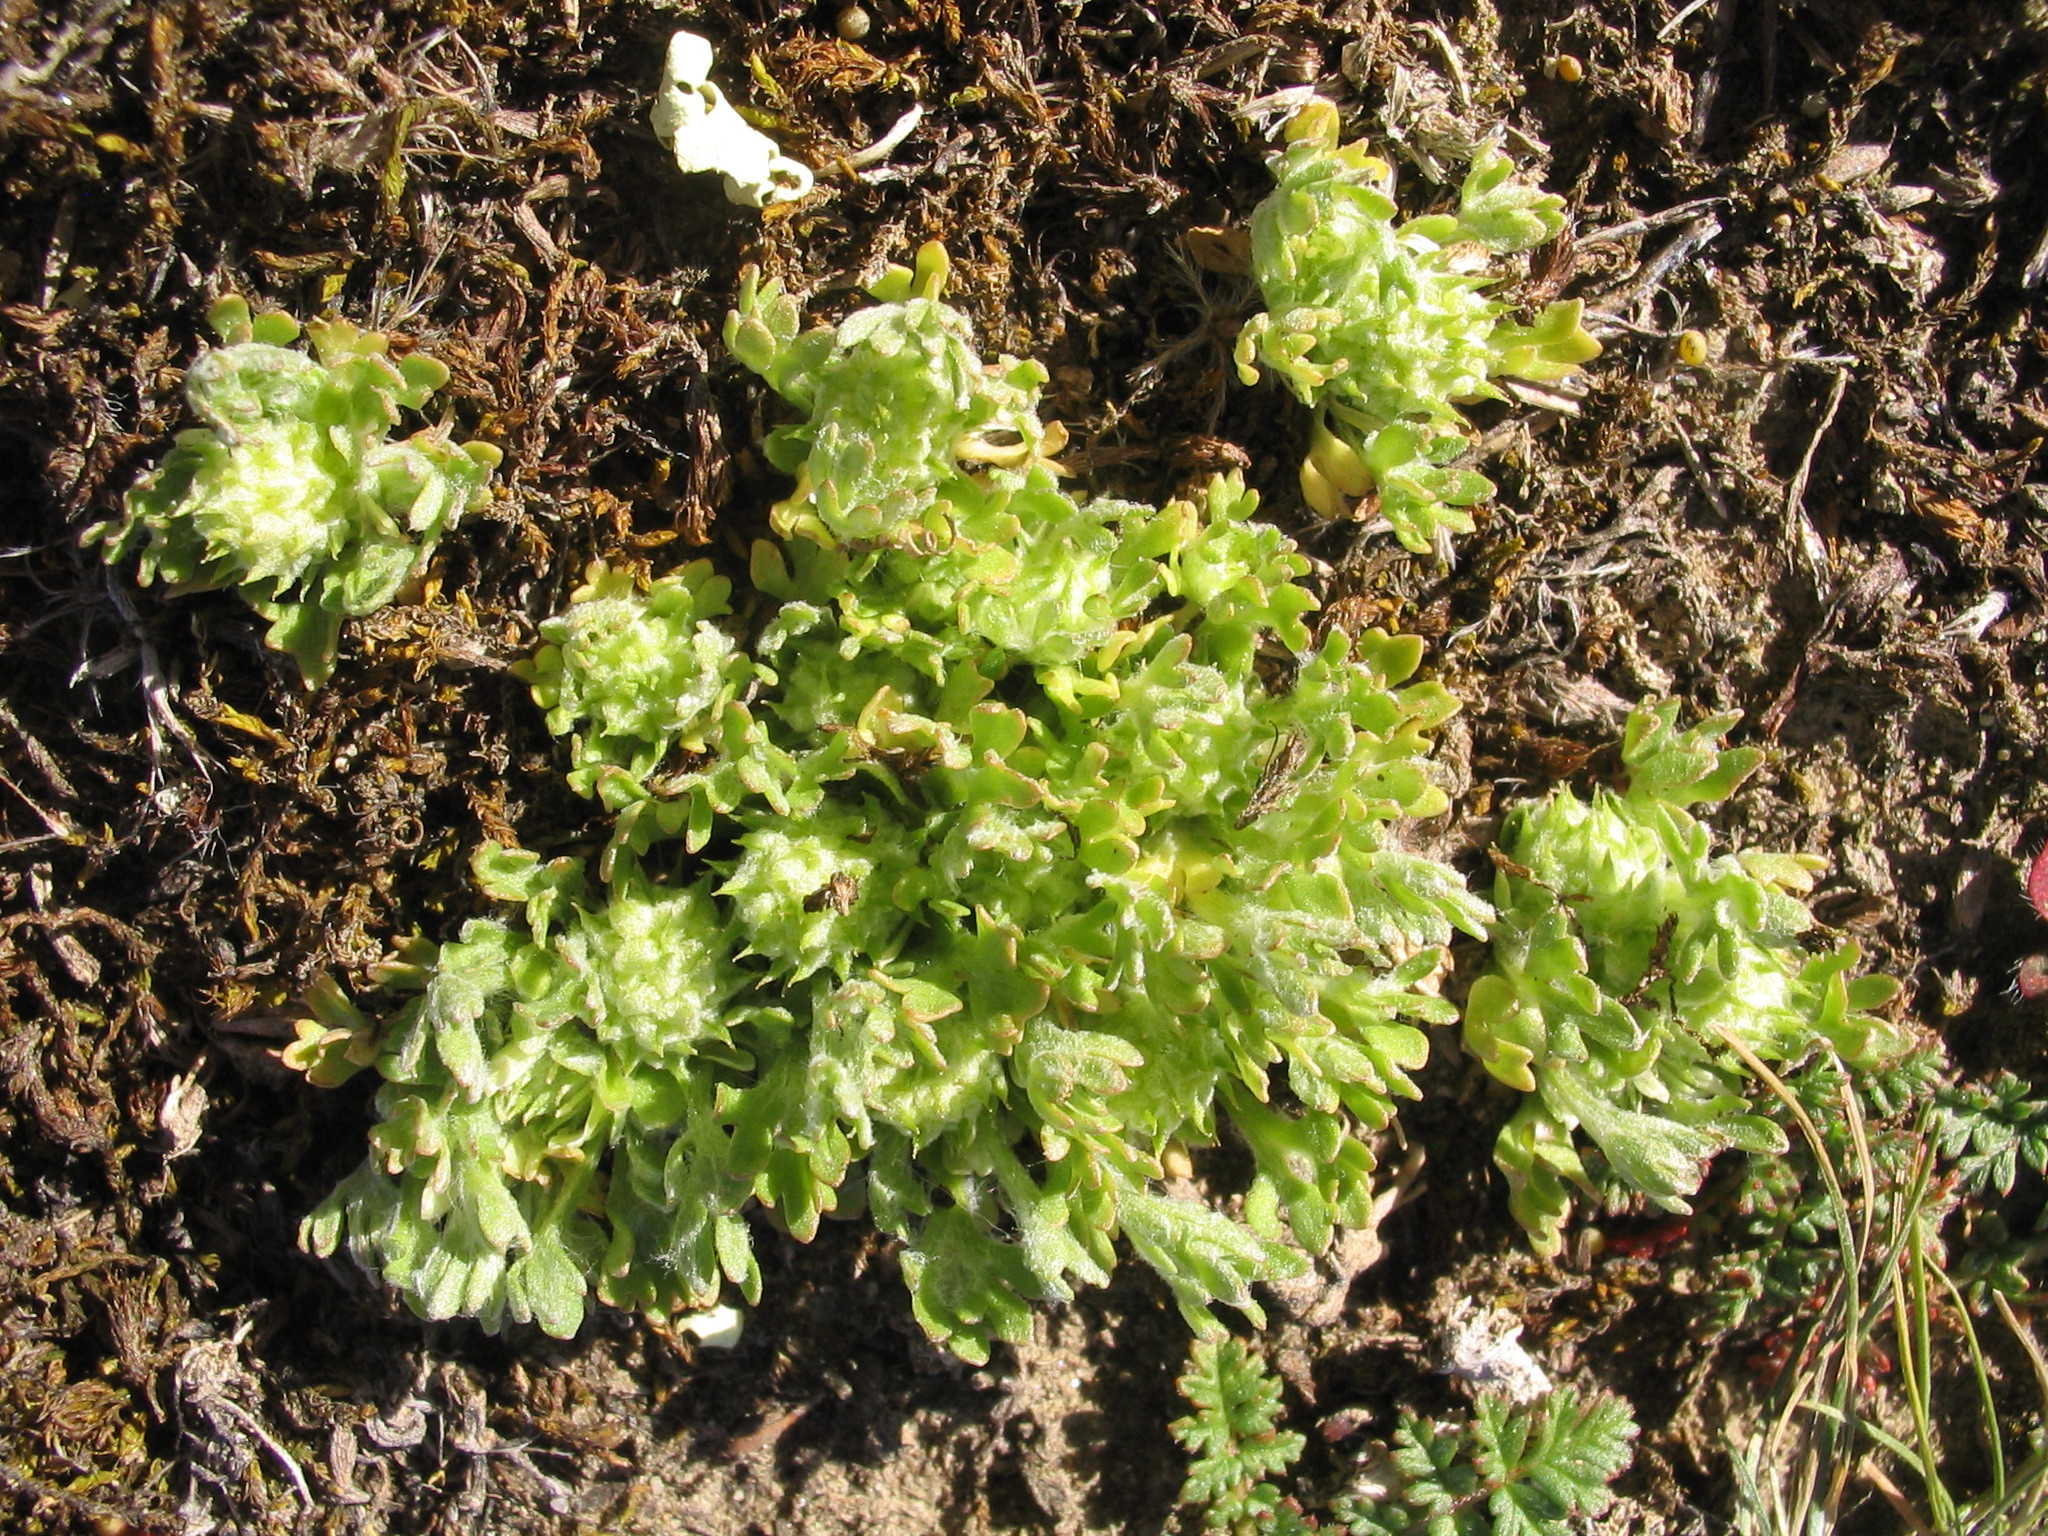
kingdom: Plantae
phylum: Tracheophyta
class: Magnoliopsida
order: Ranunculales
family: Ranunculaceae
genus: Ceratocephala
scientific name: Ceratocephala pungens
